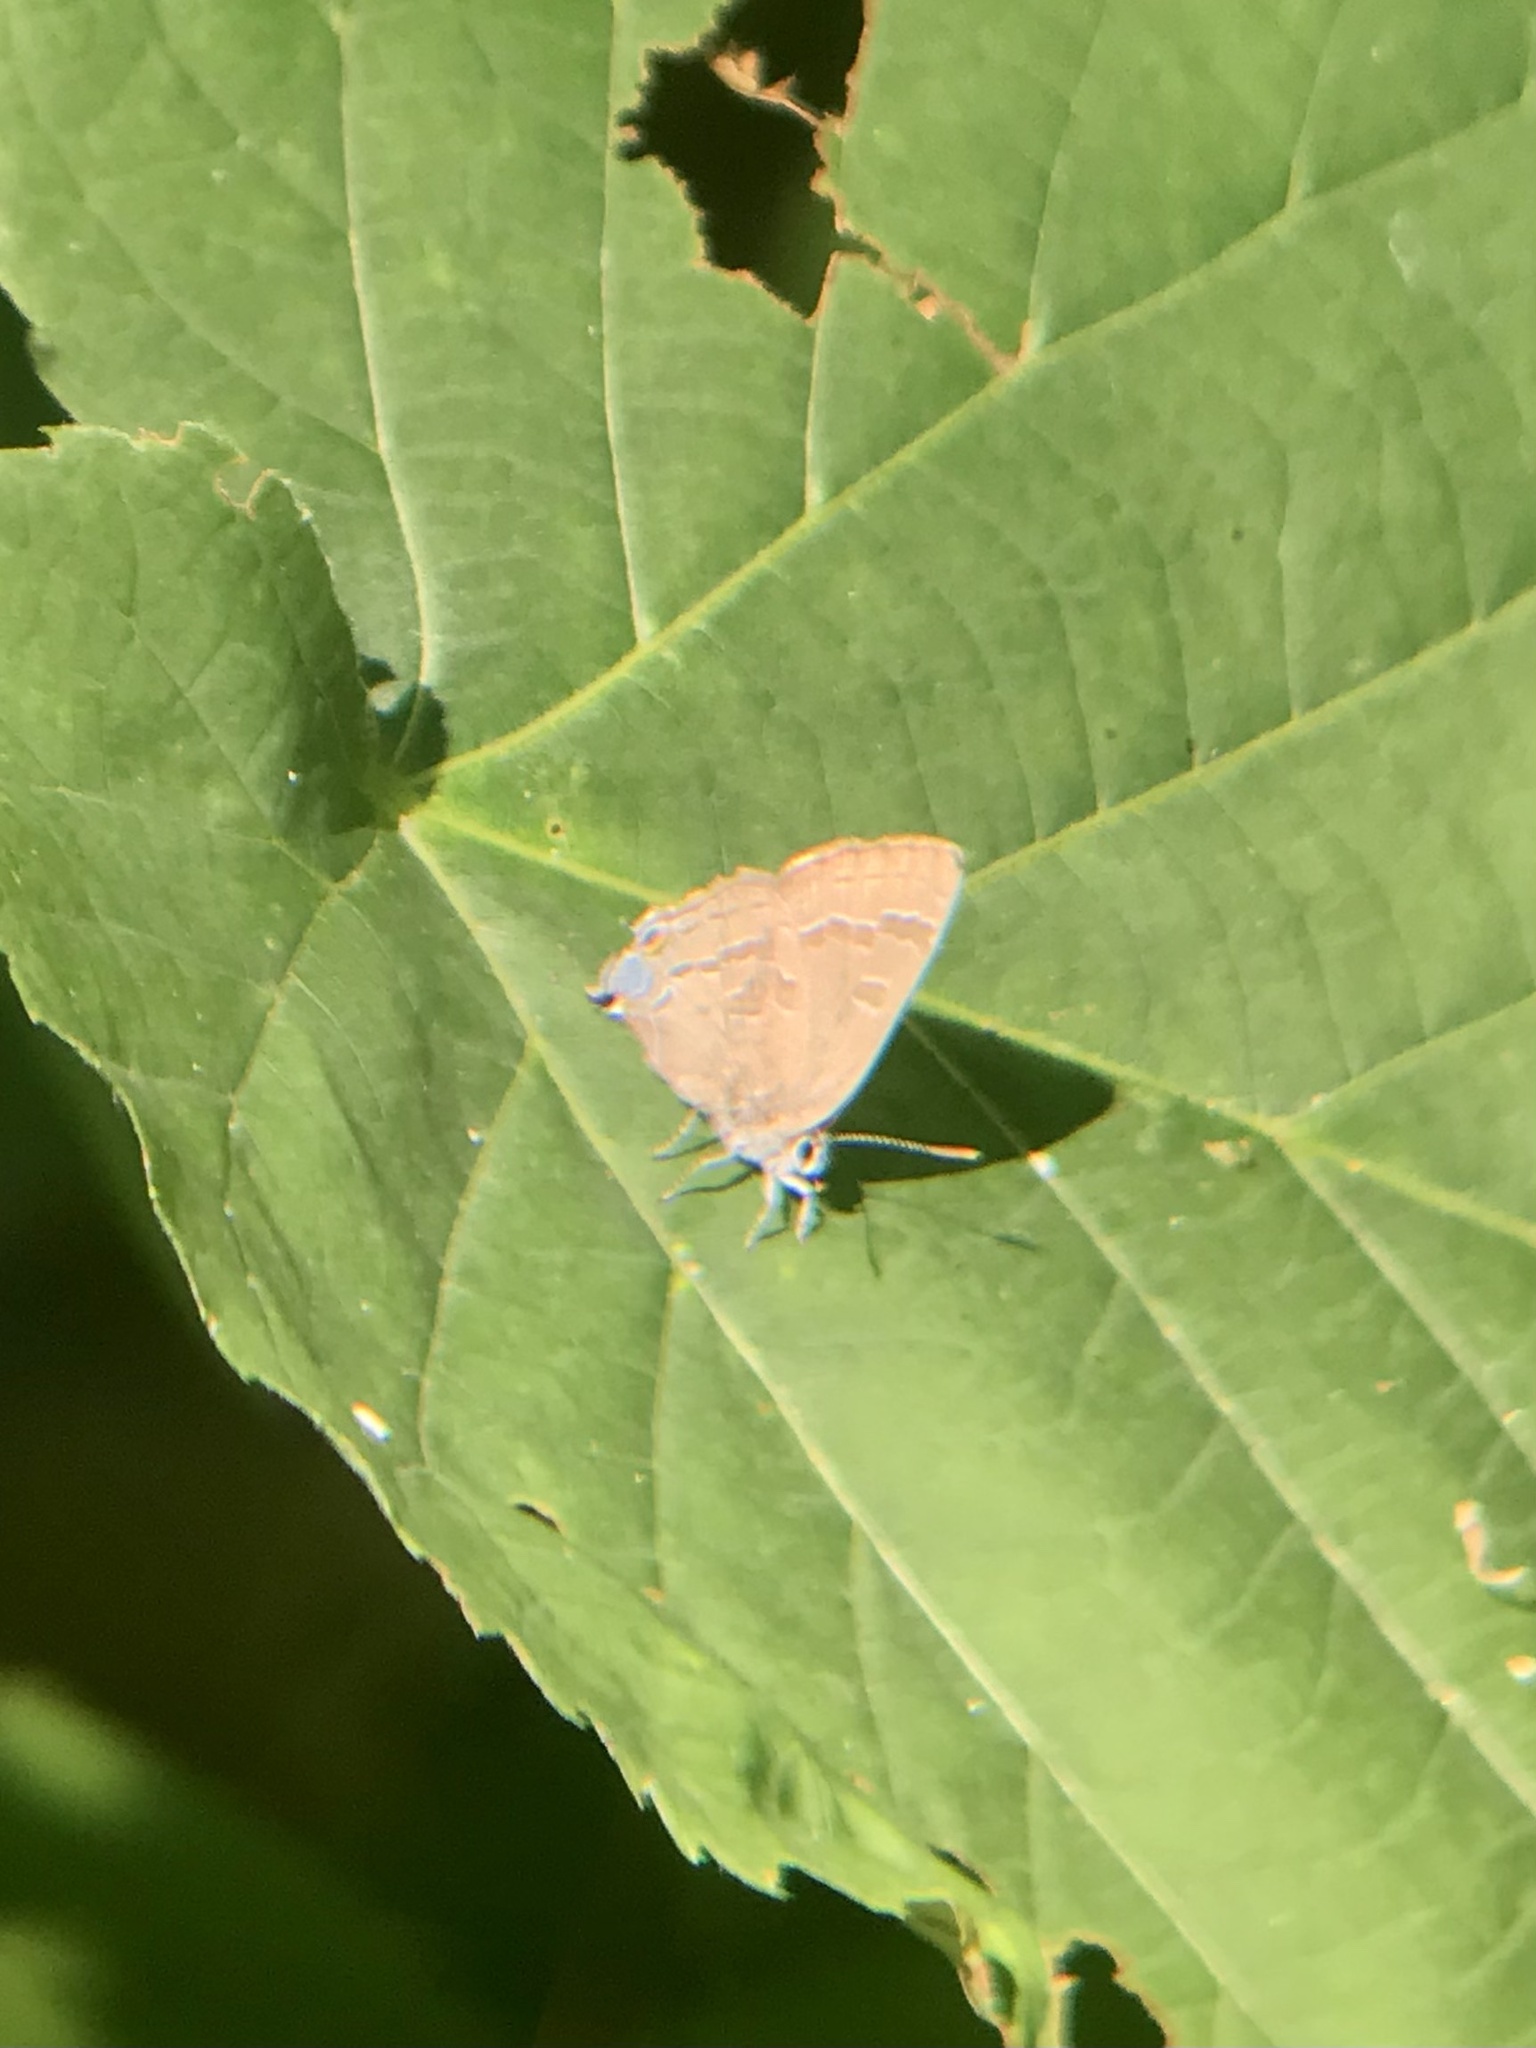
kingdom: Animalia
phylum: Arthropoda
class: Insecta
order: Lepidoptera
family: Lycaenidae
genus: Strymon
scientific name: Strymon caryaevorus
